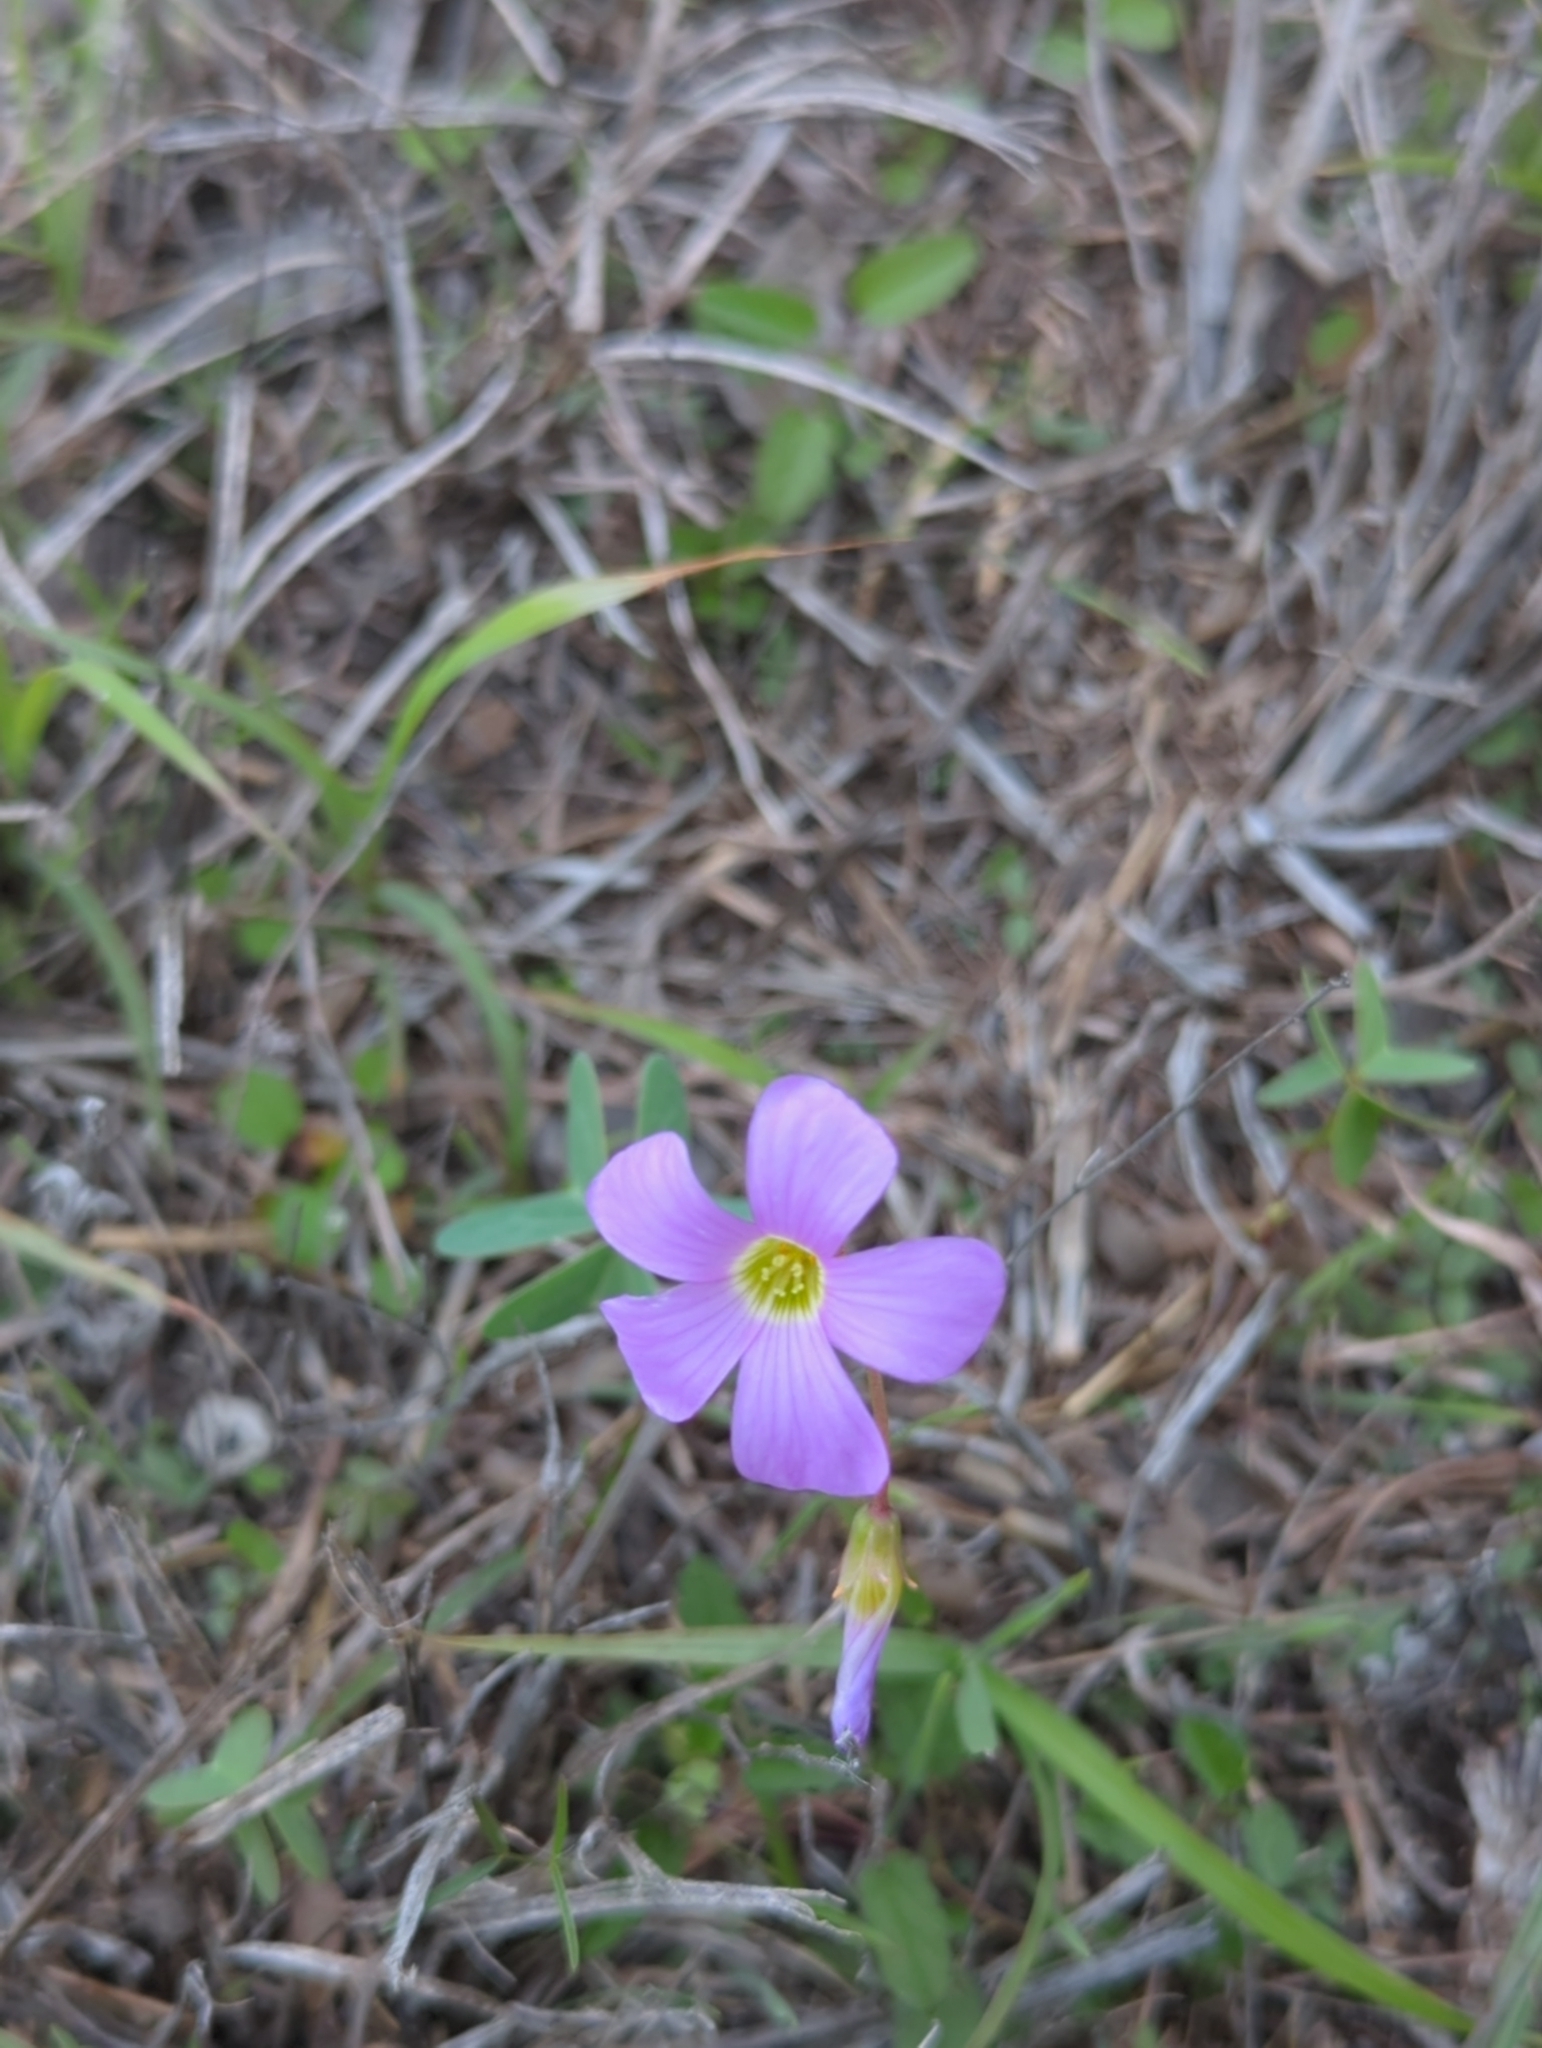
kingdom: Plantae
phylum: Tracheophyta
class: Magnoliopsida
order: Oxalidales
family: Oxalidaceae
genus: Oxalis
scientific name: Oxalis drummondii
